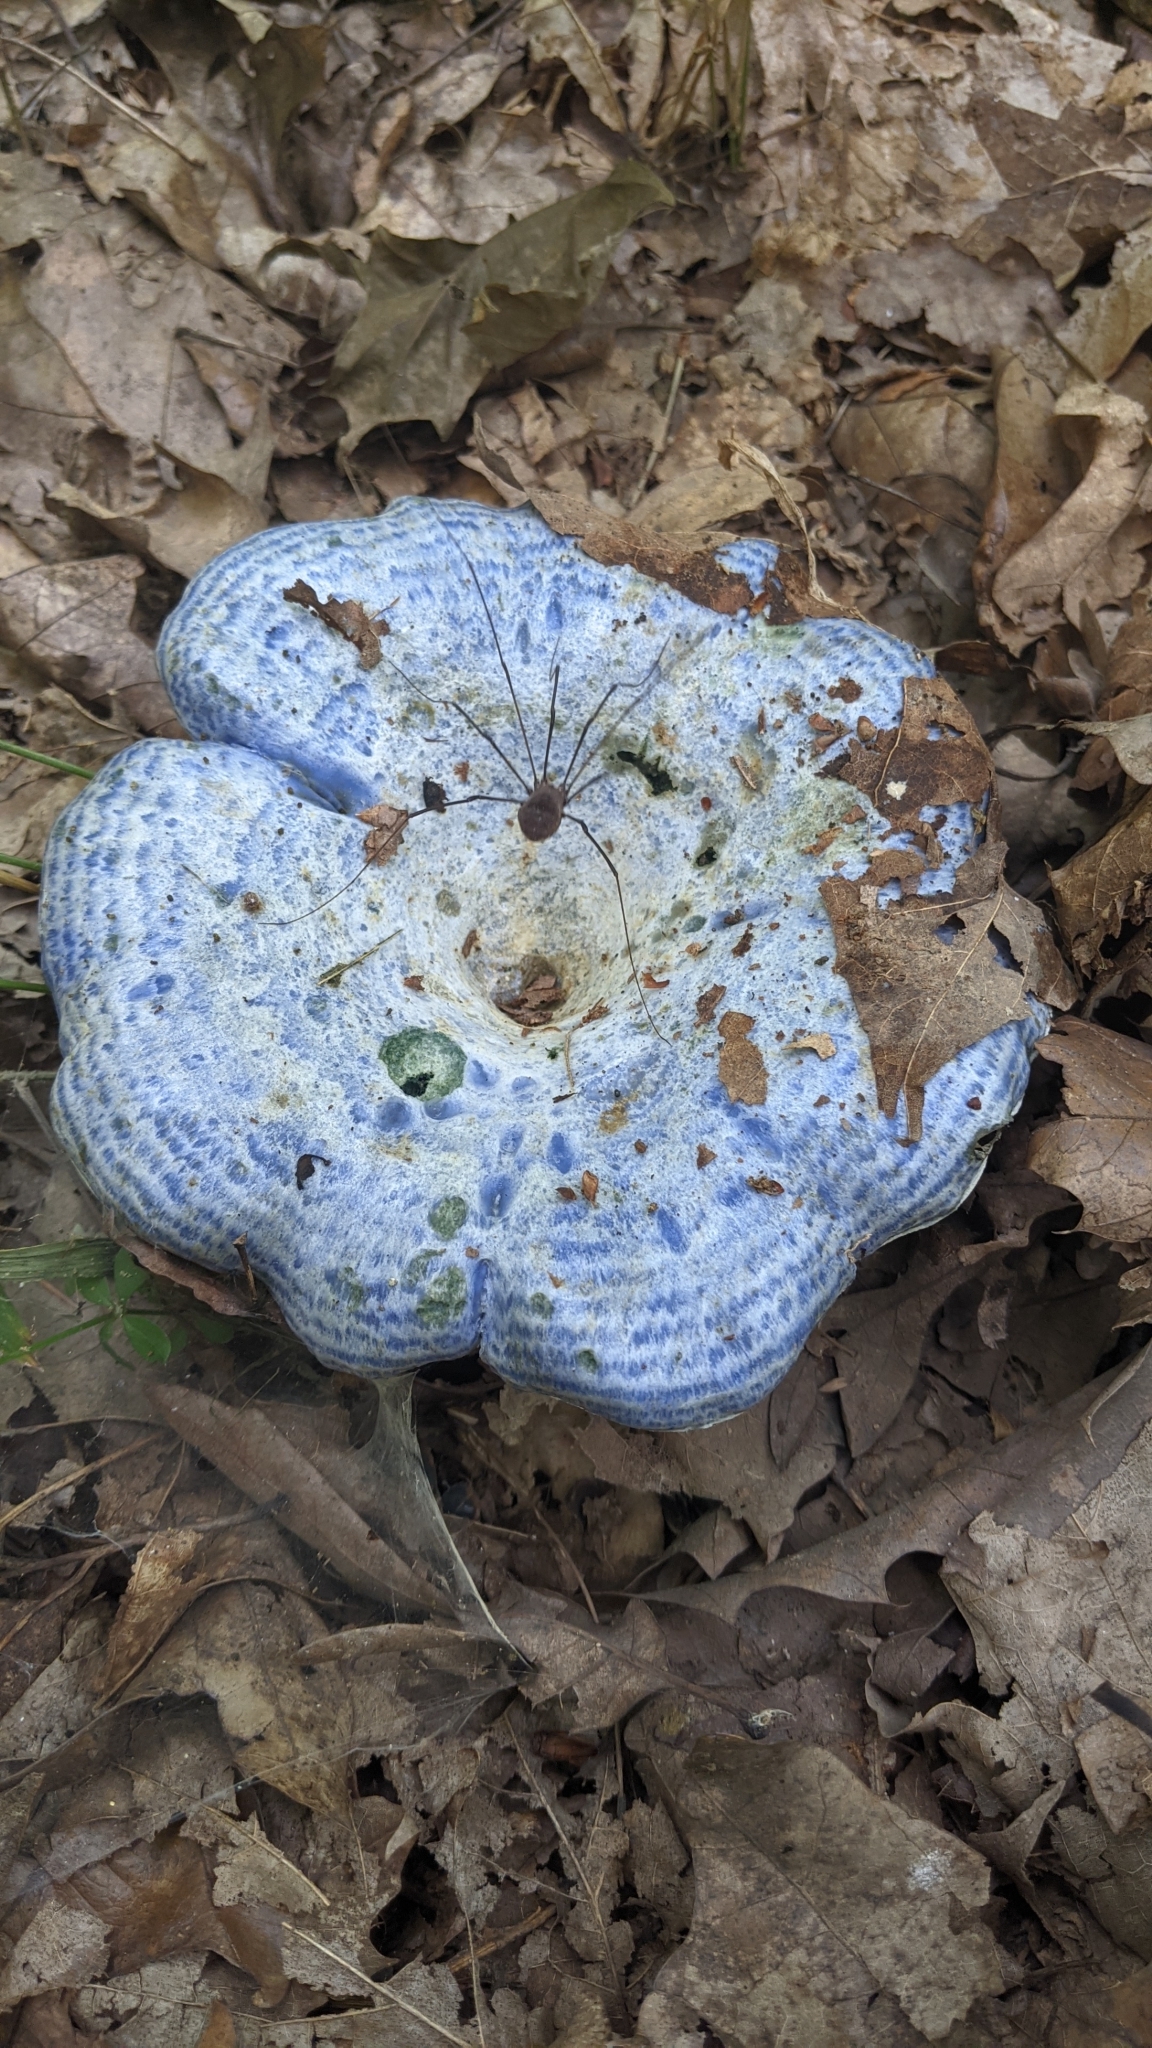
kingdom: Fungi
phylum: Basidiomycota
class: Agaricomycetes
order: Russulales
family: Russulaceae
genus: Lactarius
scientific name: Lactarius indigo
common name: Indigo milk cap
